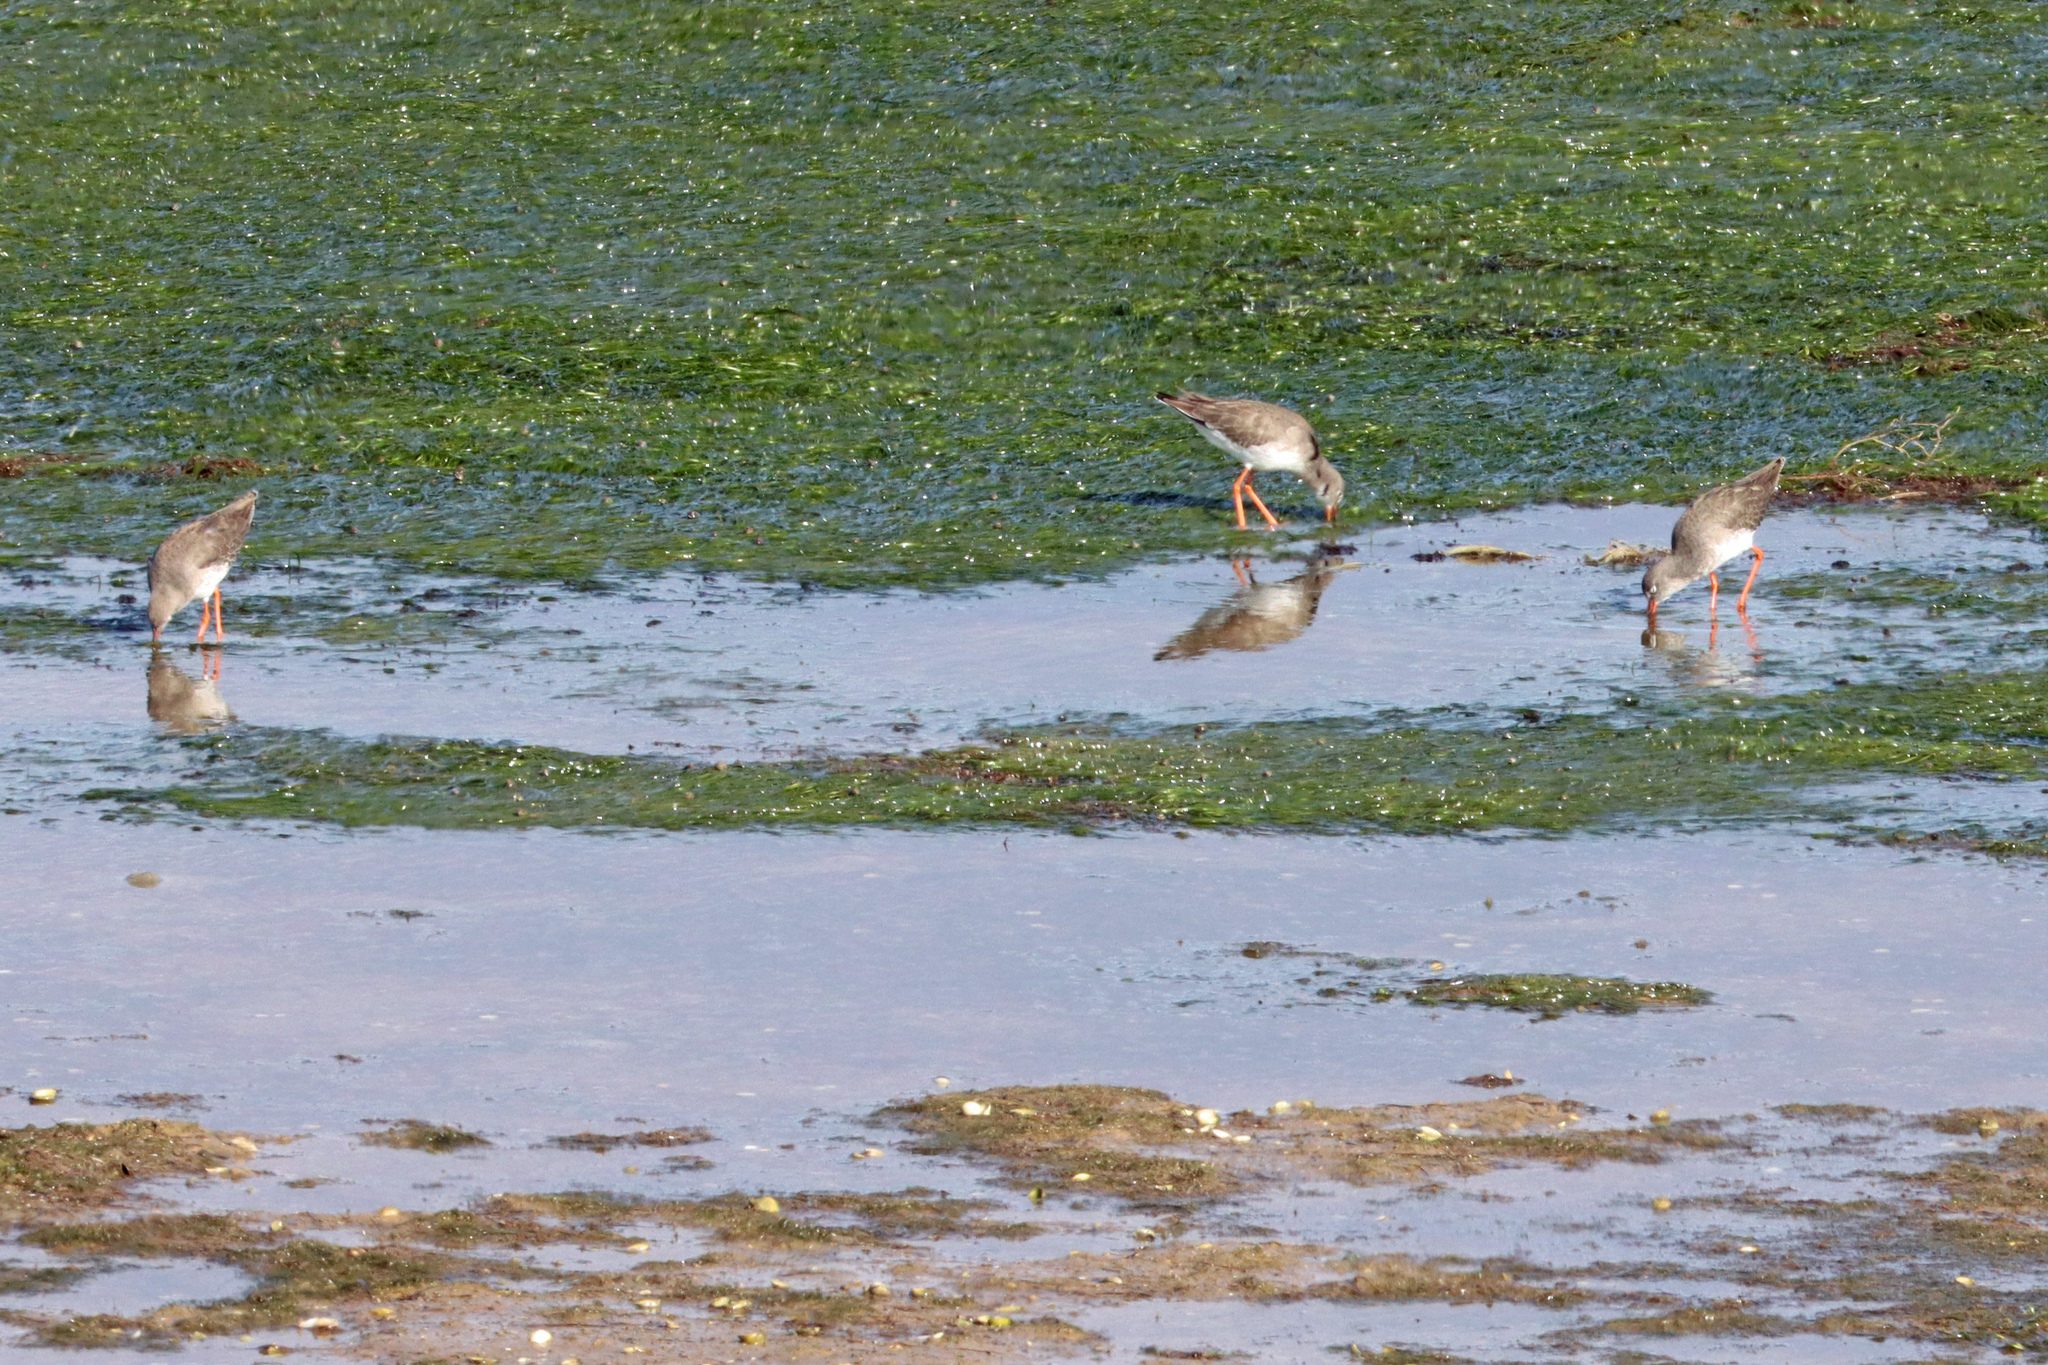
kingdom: Animalia
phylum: Chordata
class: Aves
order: Charadriiformes
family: Scolopacidae
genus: Tringa
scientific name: Tringa totanus
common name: Common redshank
